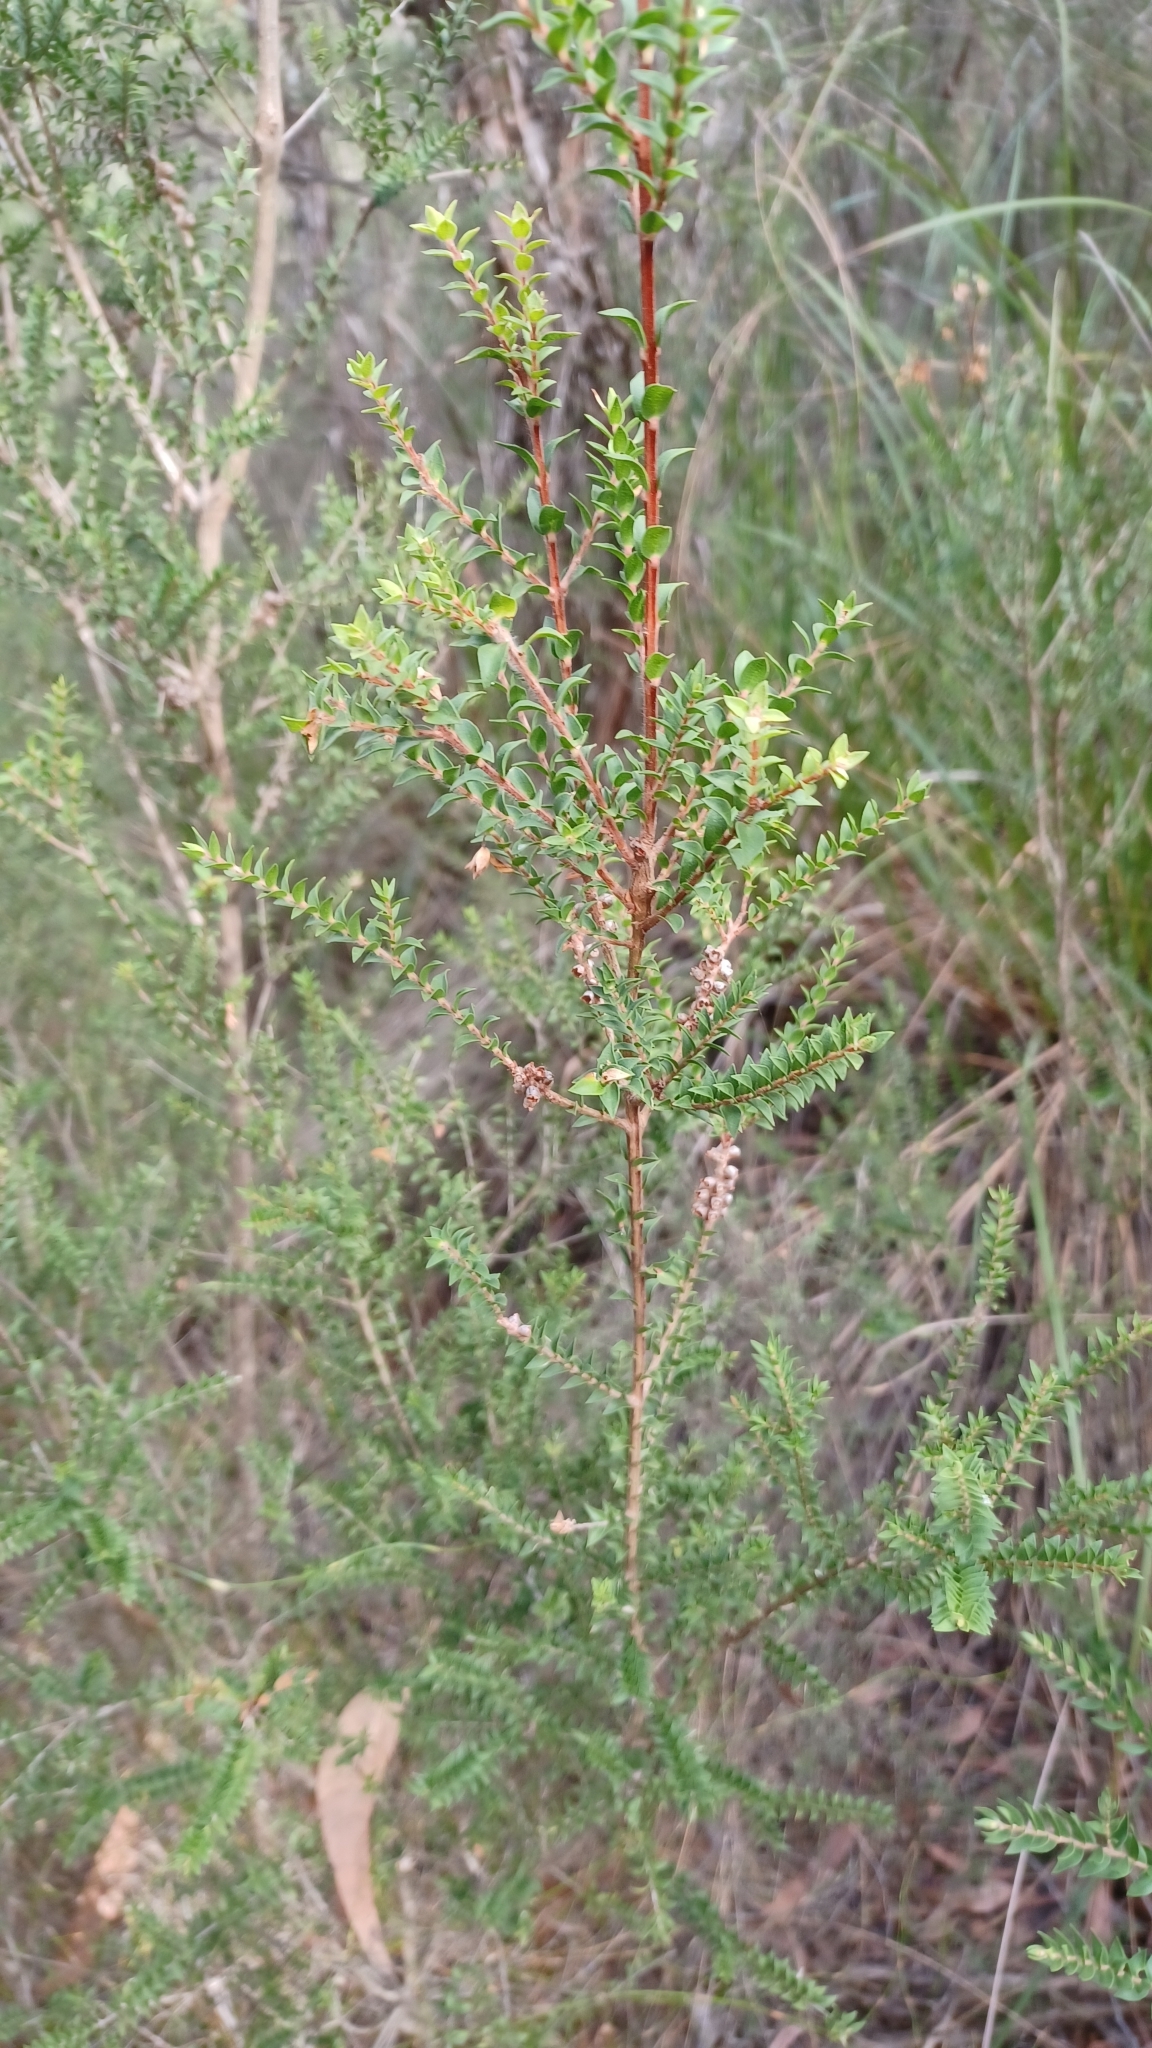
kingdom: Plantae
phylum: Tracheophyta
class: Magnoliopsida
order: Myrtales
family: Myrtaceae
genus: Melaleuca
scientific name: Melaleuca squarrosa
